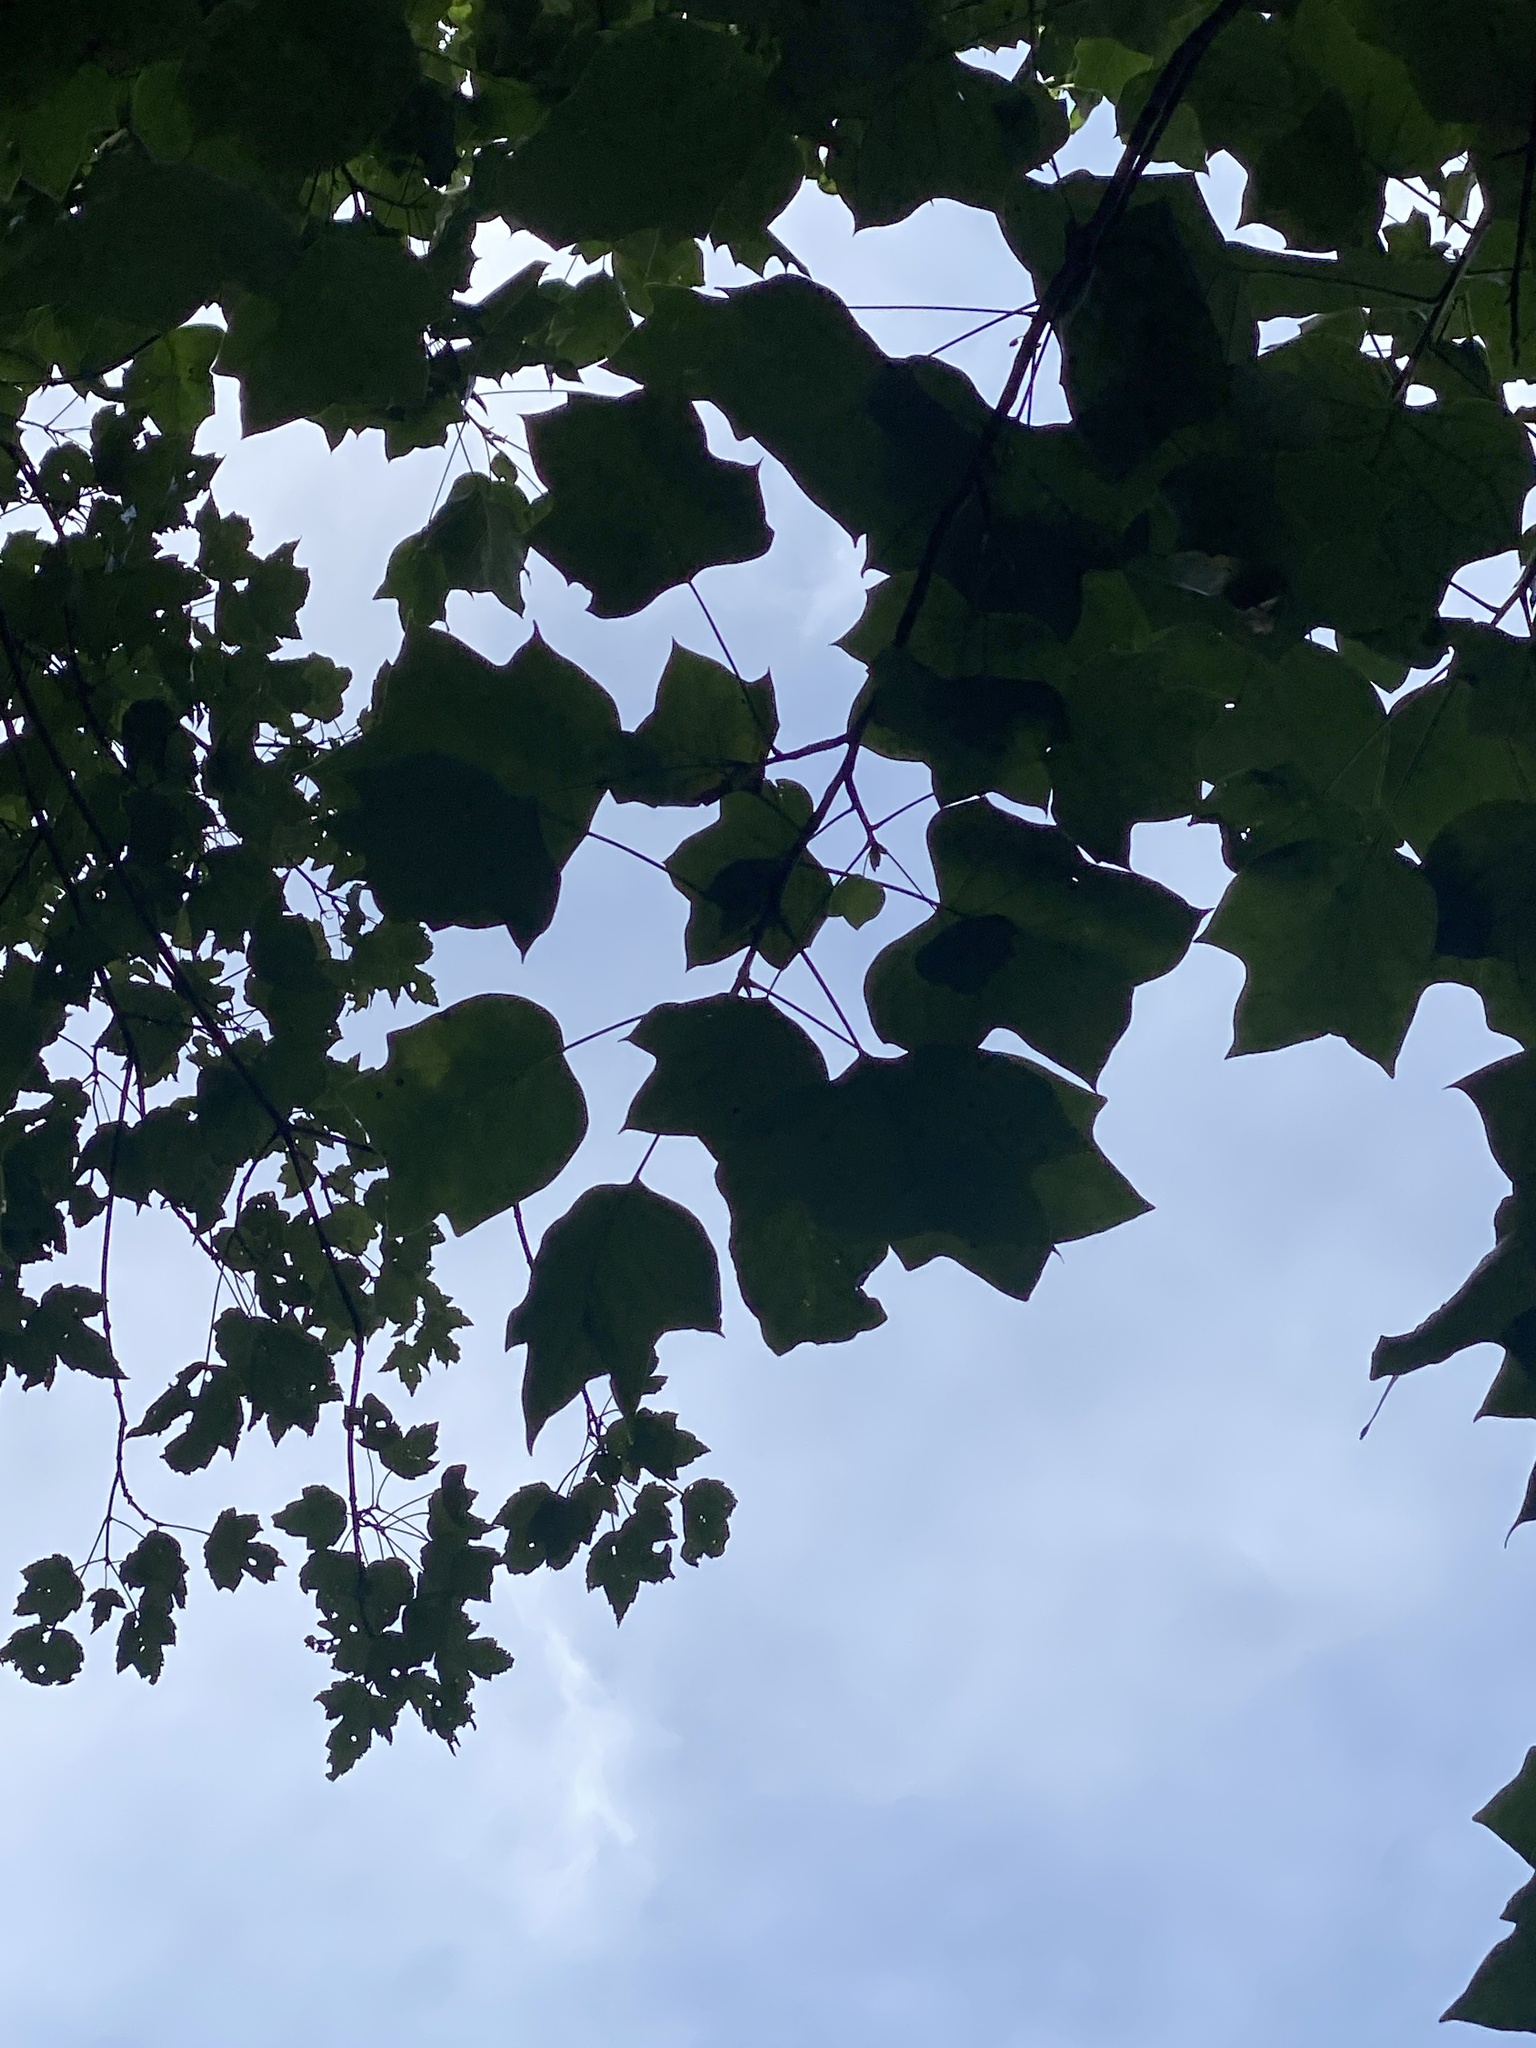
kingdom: Plantae
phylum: Tracheophyta
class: Magnoliopsida
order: Magnoliales
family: Magnoliaceae
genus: Liriodendron
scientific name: Liriodendron tulipifera
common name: Tulip tree
